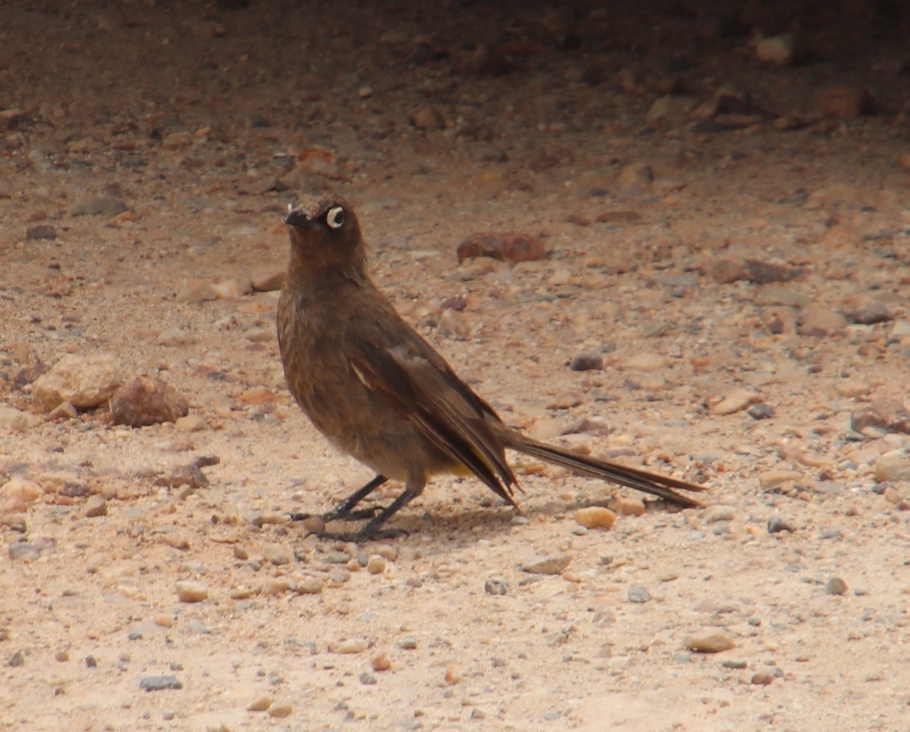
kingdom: Animalia
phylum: Chordata
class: Aves
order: Passeriformes
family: Pycnonotidae
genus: Pycnonotus
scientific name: Pycnonotus capensis
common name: Cape bulbul
